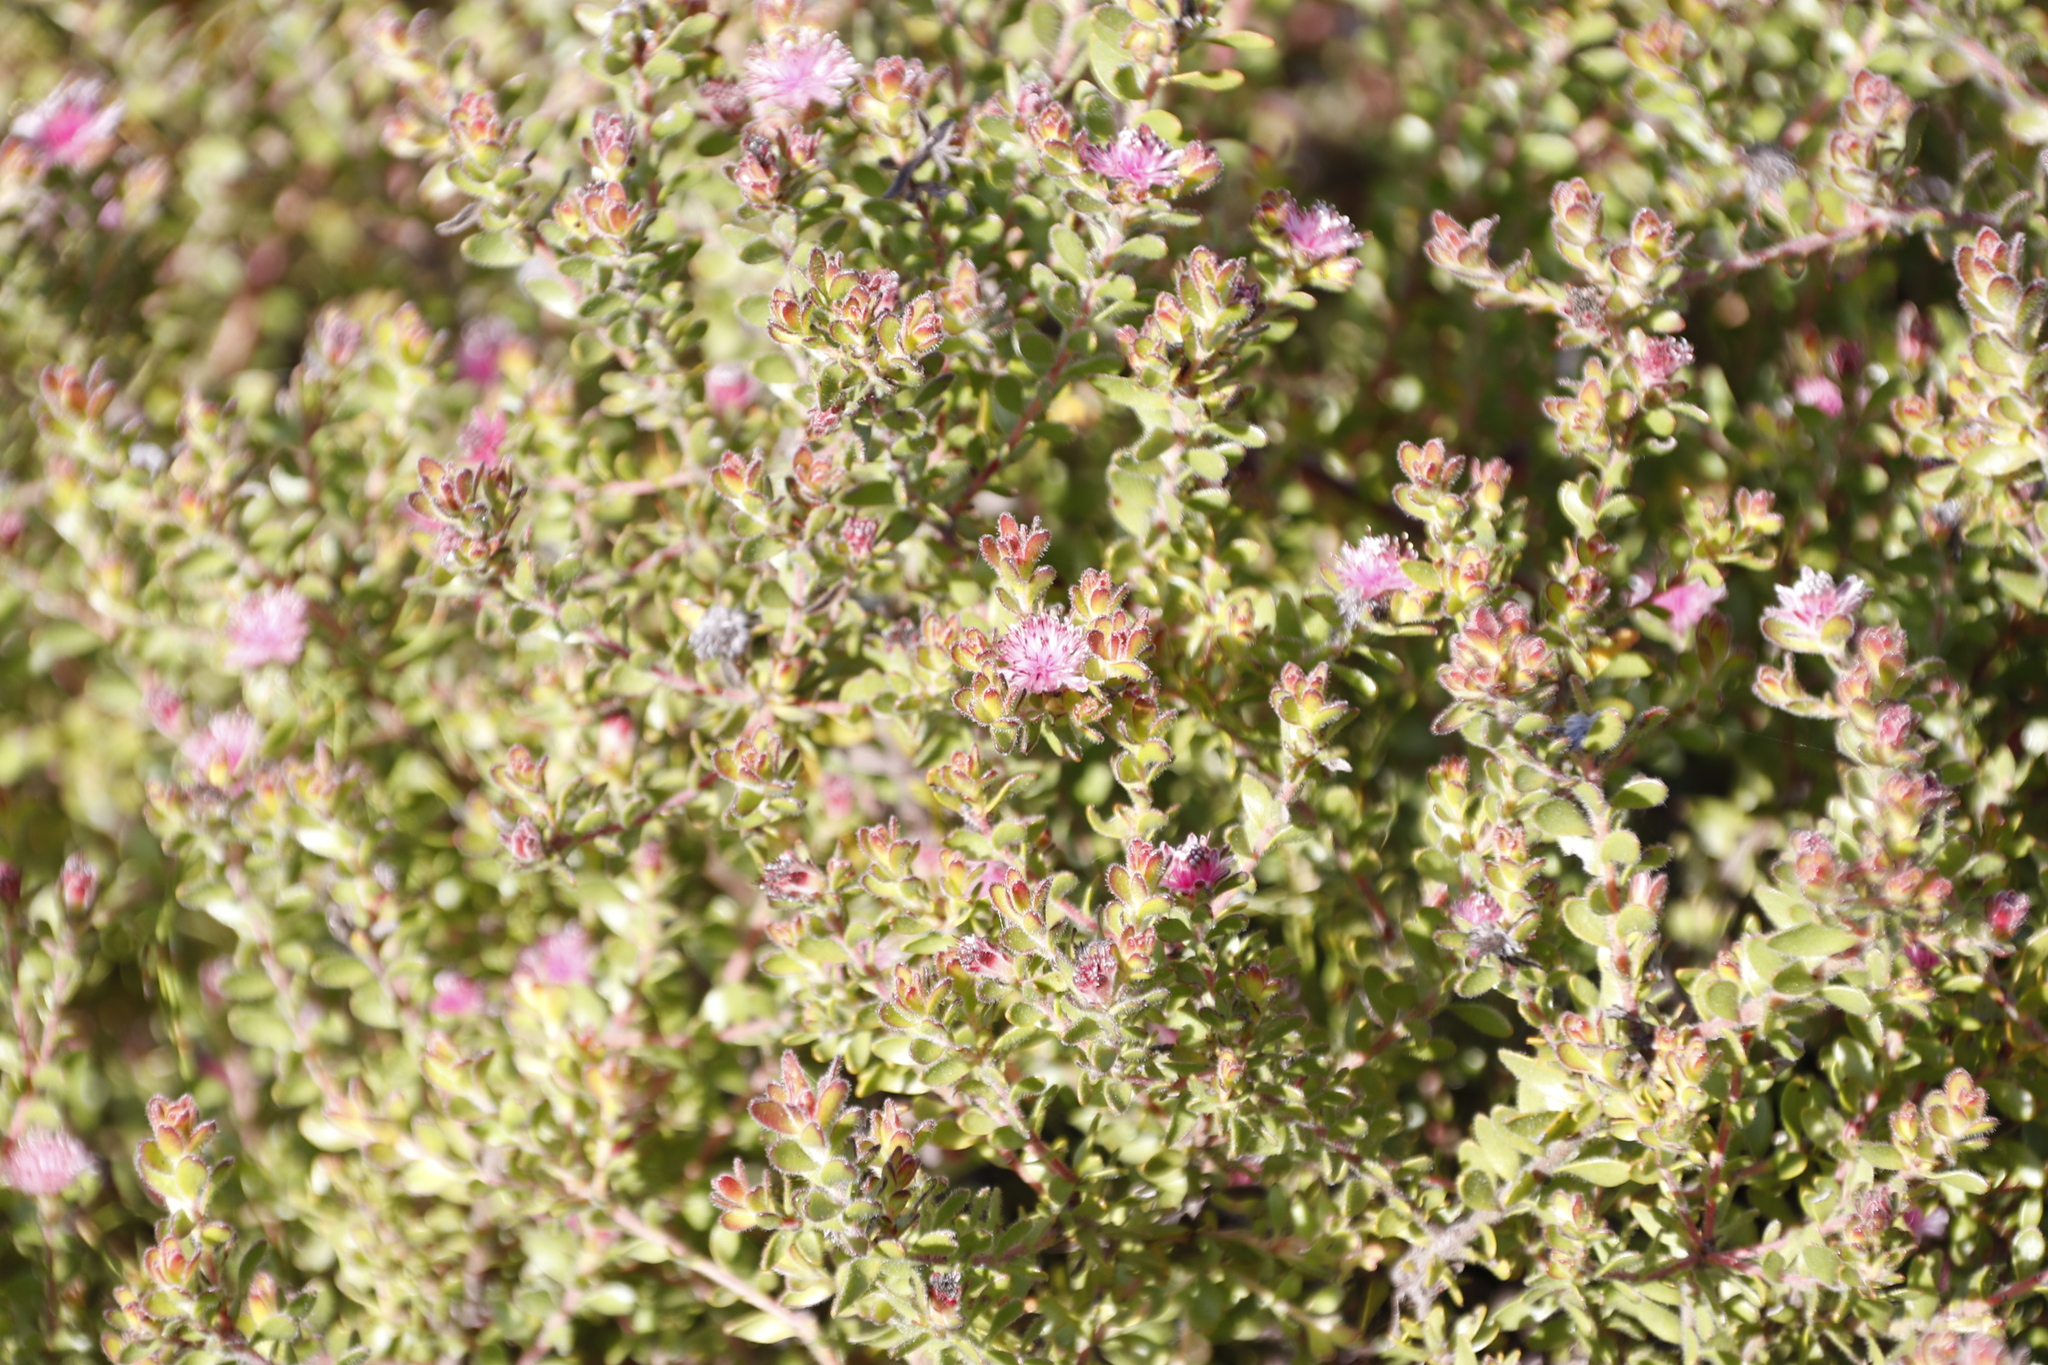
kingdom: Plantae
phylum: Tracheophyta
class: Magnoliopsida
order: Proteales
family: Proteaceae
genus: Diastella
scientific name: Diastella divaricata
